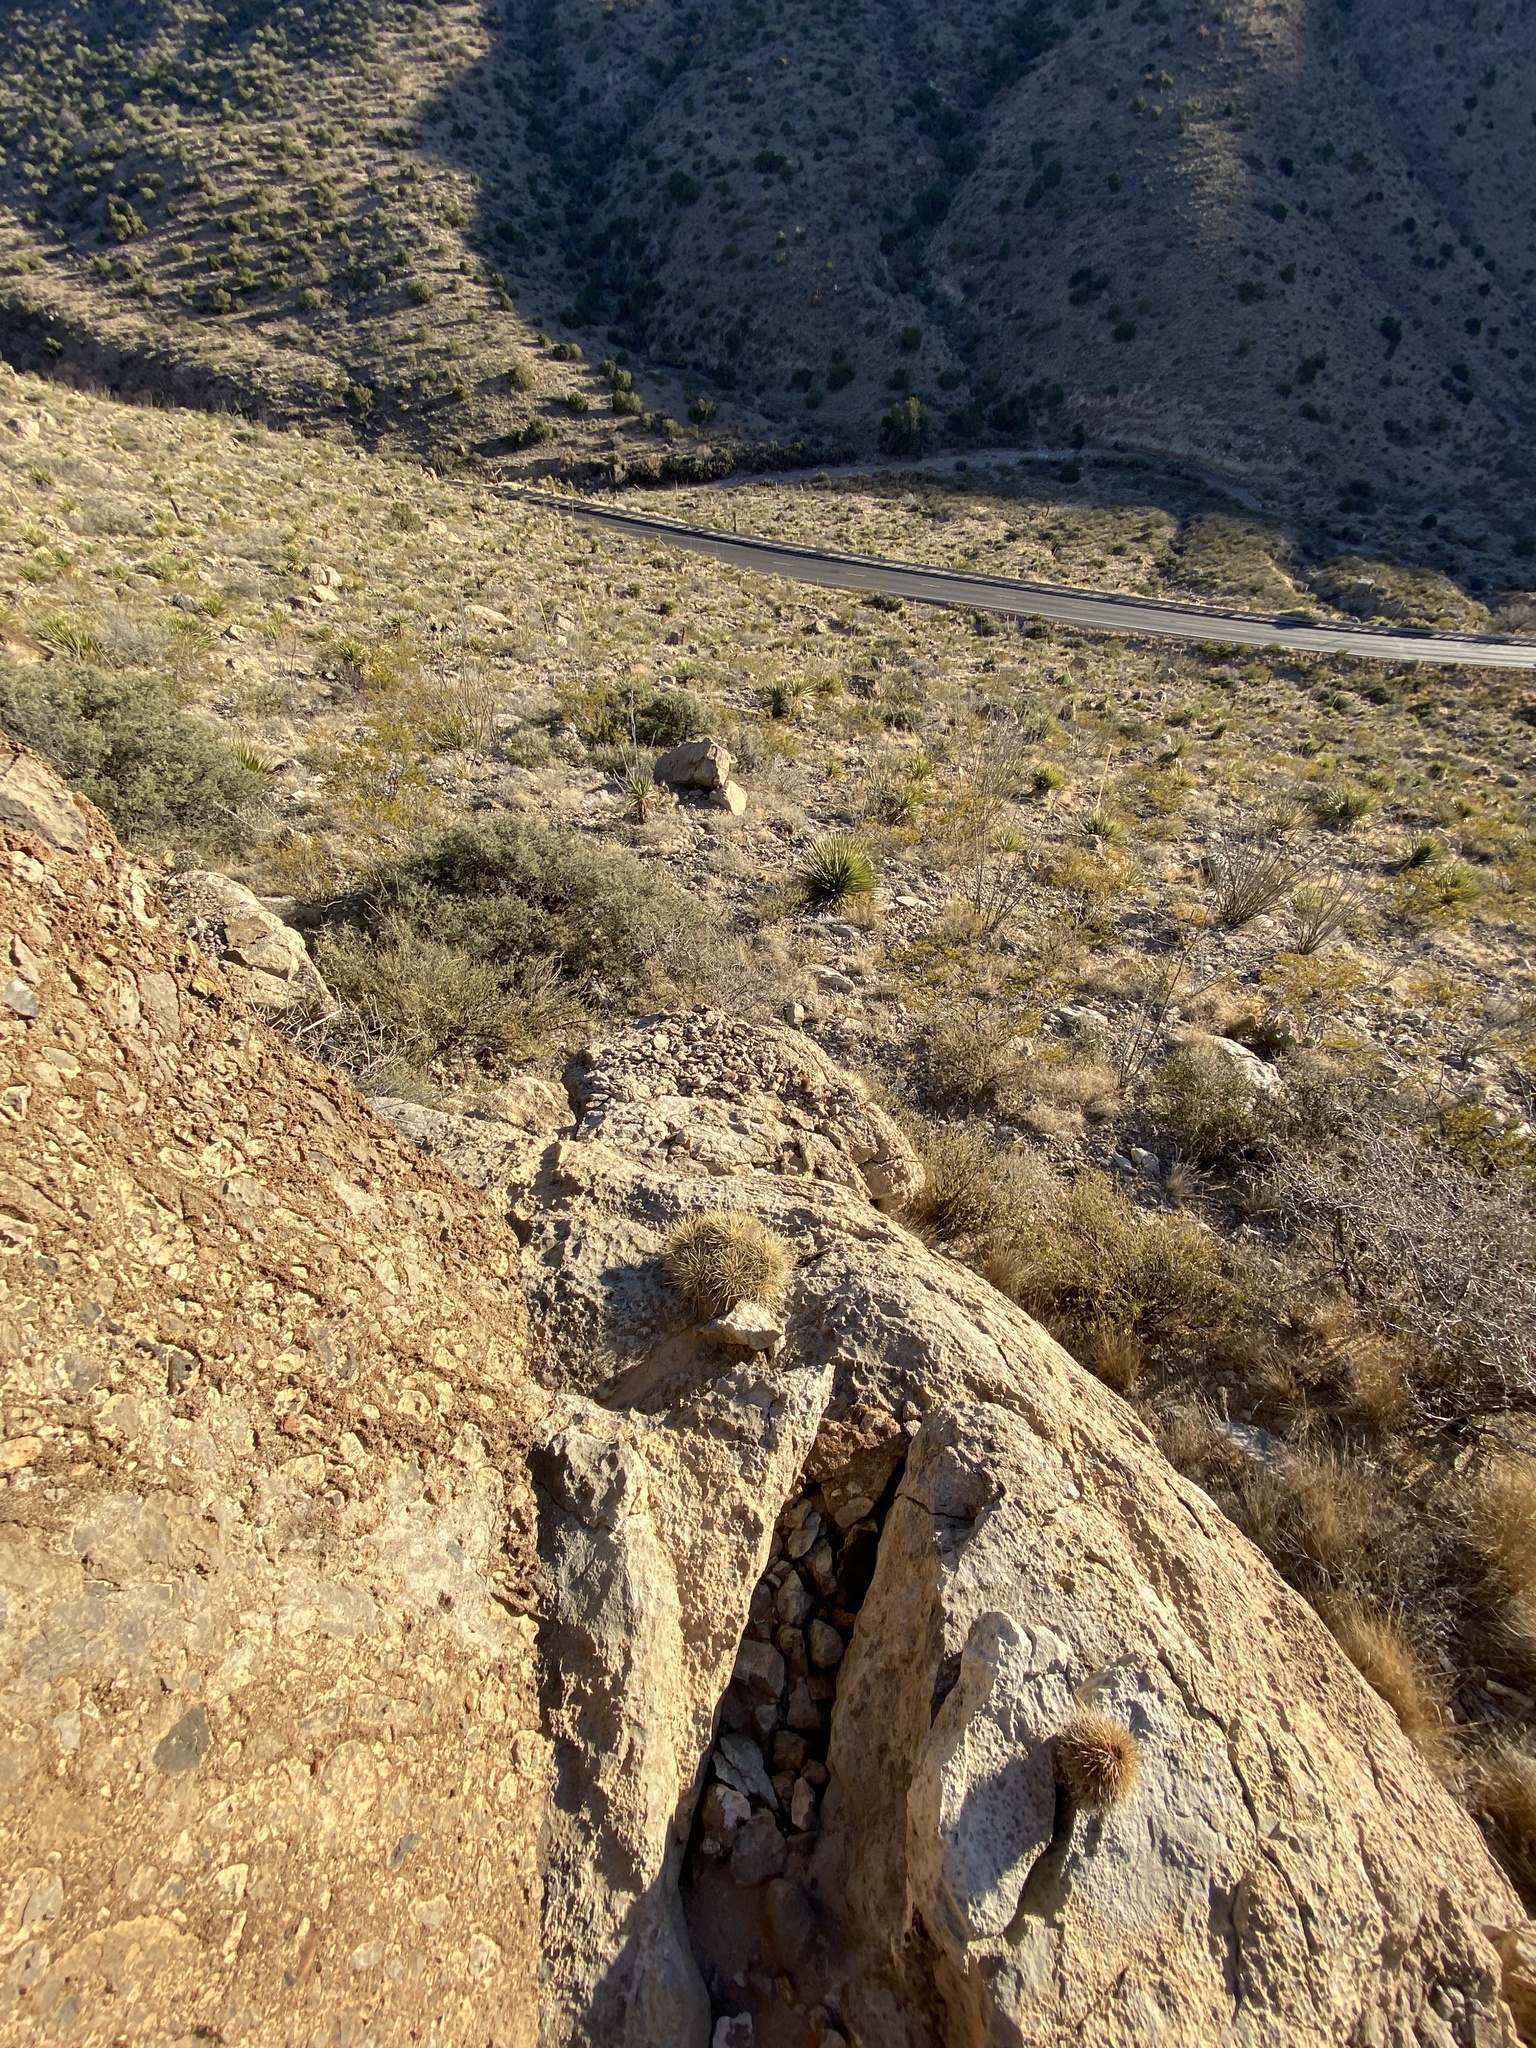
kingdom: Plantae
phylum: Tracheophyta
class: Magnoliopsida
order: Caryophyllales
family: Cactaceae
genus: Echinocereus
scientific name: Echinocereus coccineus
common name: Scarlet hedgehog cactus
